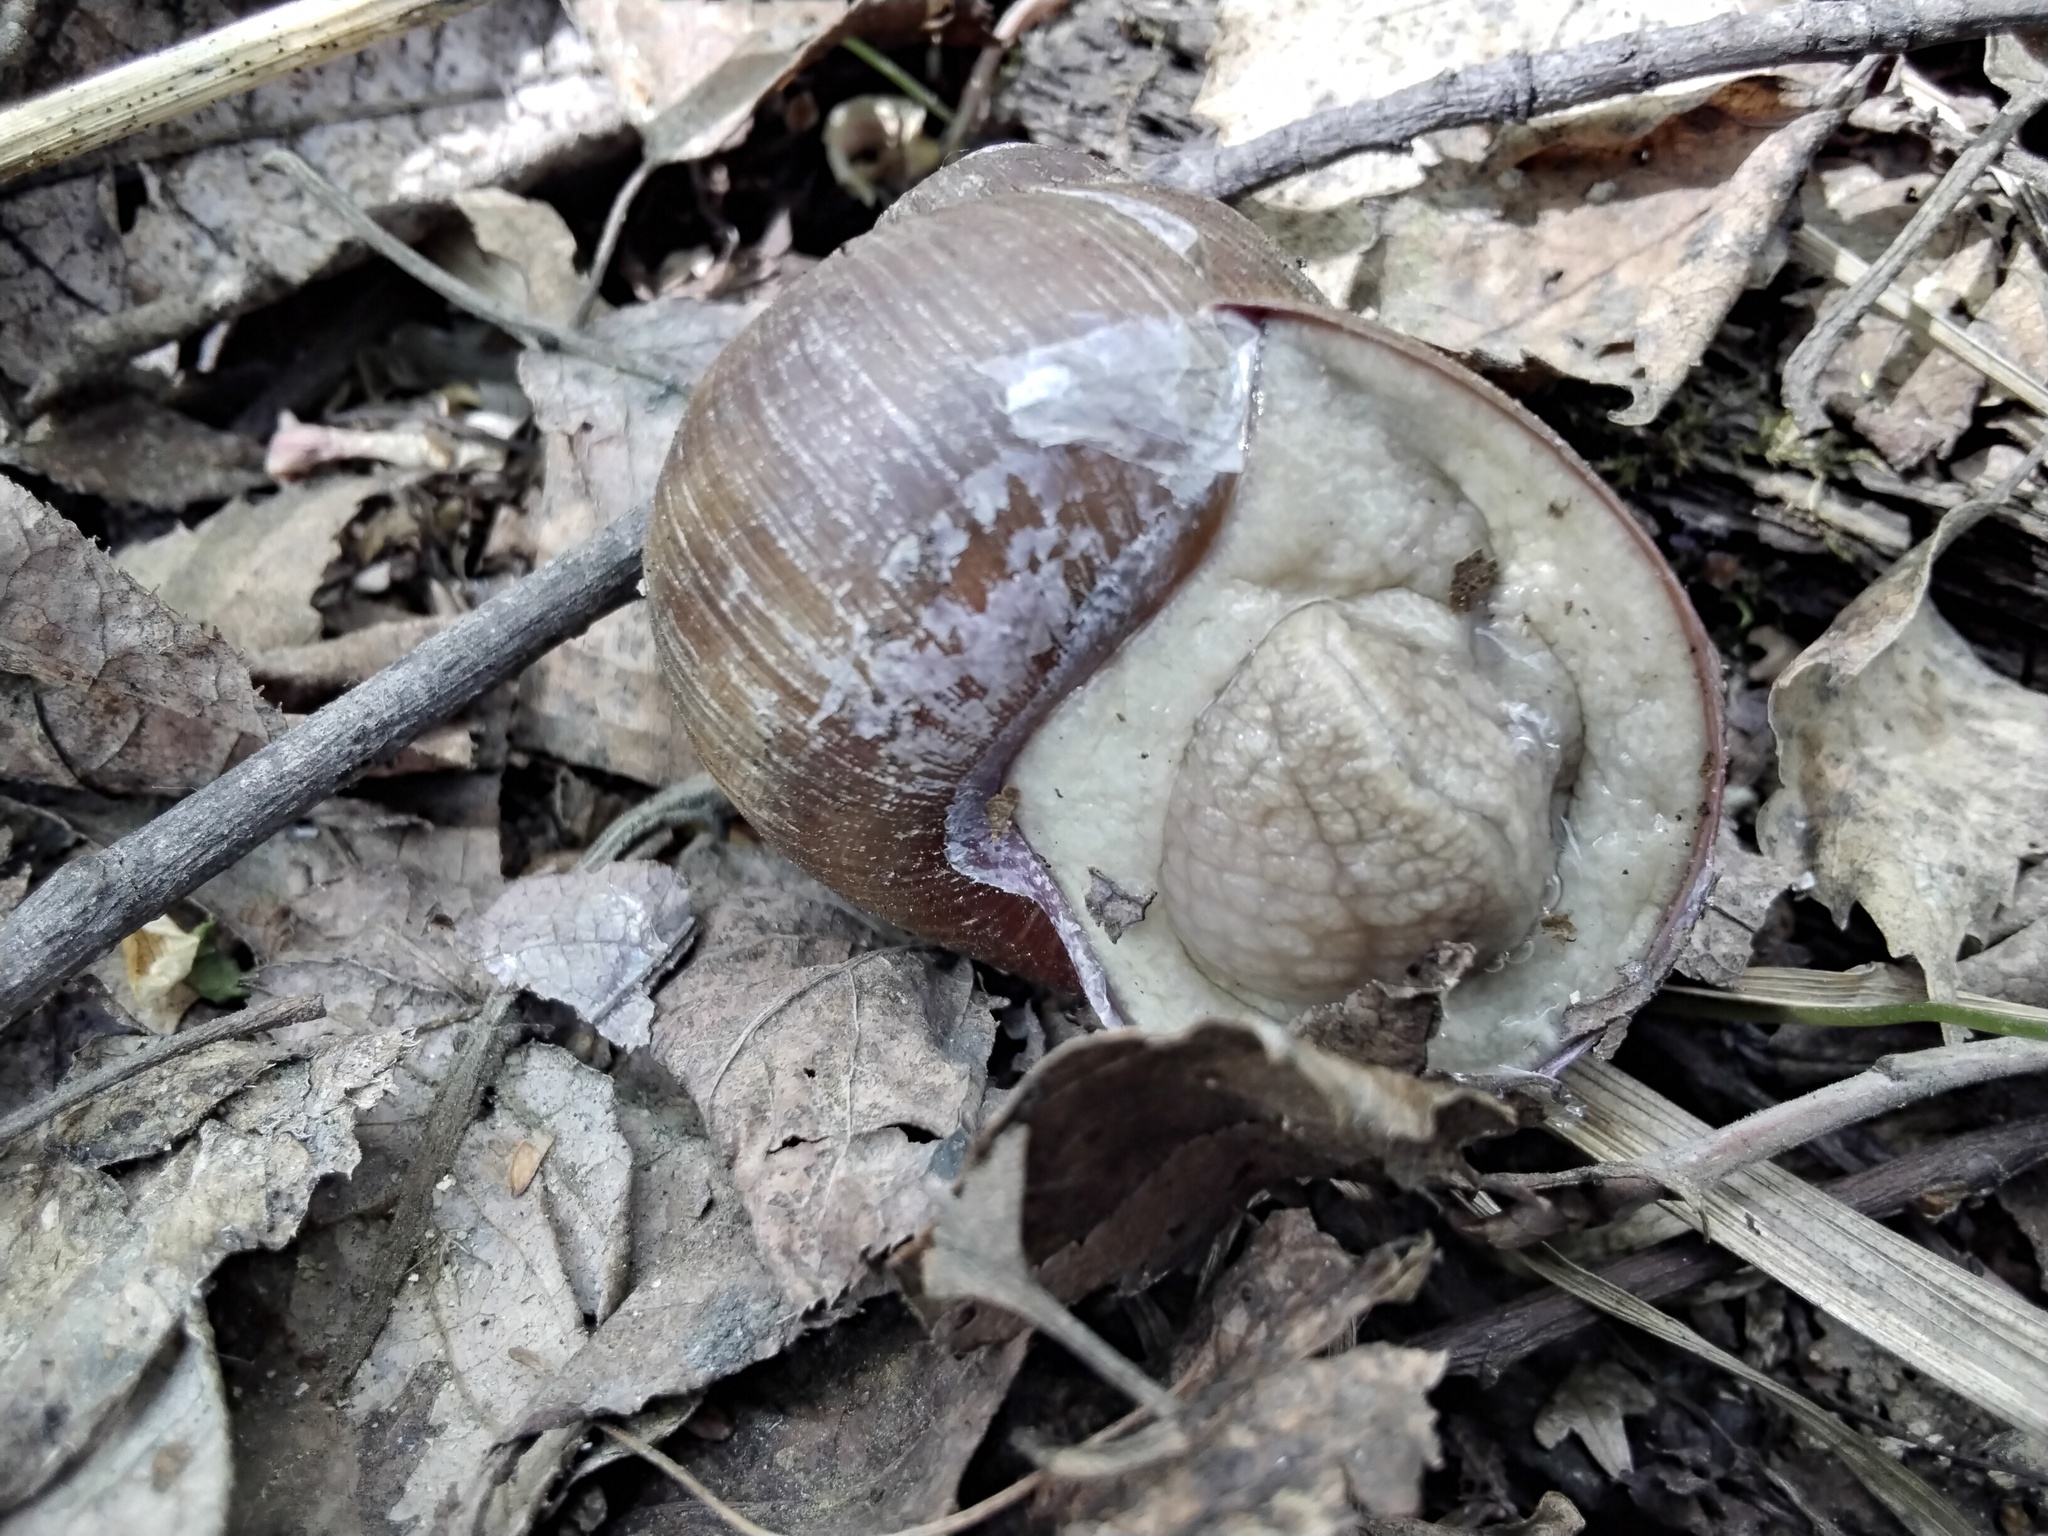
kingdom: Animalia
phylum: Mollusca
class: Gastropoda
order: Stylommatophora
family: Helicidae
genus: Helix
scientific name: Helix pomatia
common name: Roman snail
